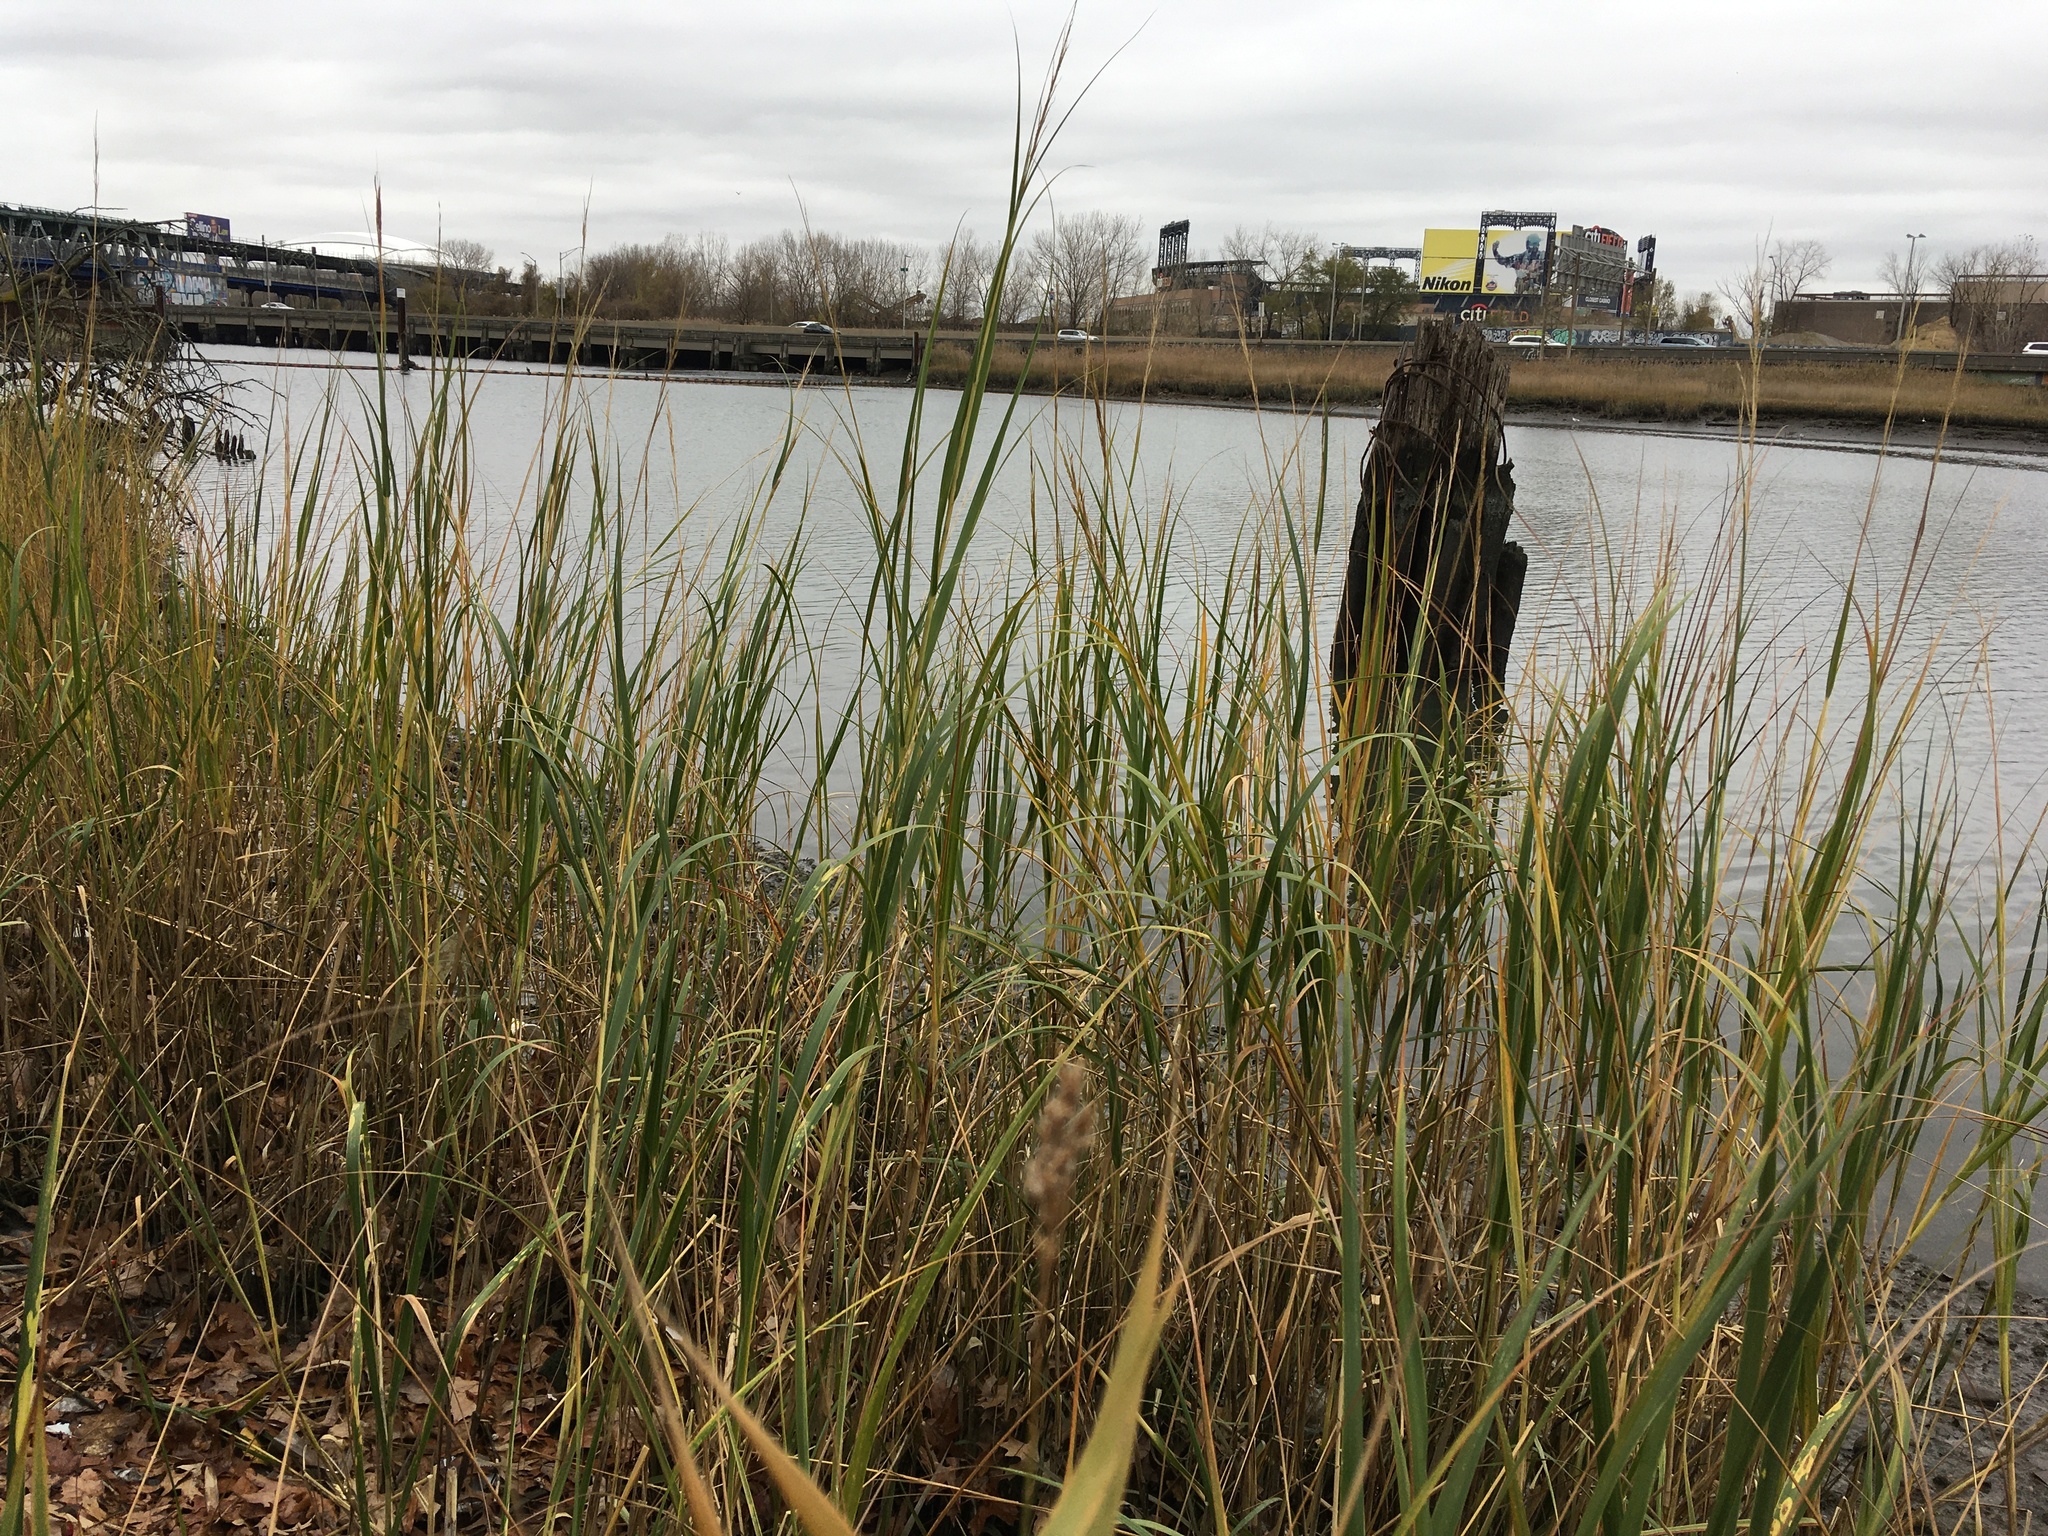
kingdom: Plantae
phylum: Tracheophyta
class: Liliopsida
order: Poales
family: Poaceae
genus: Sporobolus
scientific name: Sporobolus alterniflorus
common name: Atlantic cordgrass
